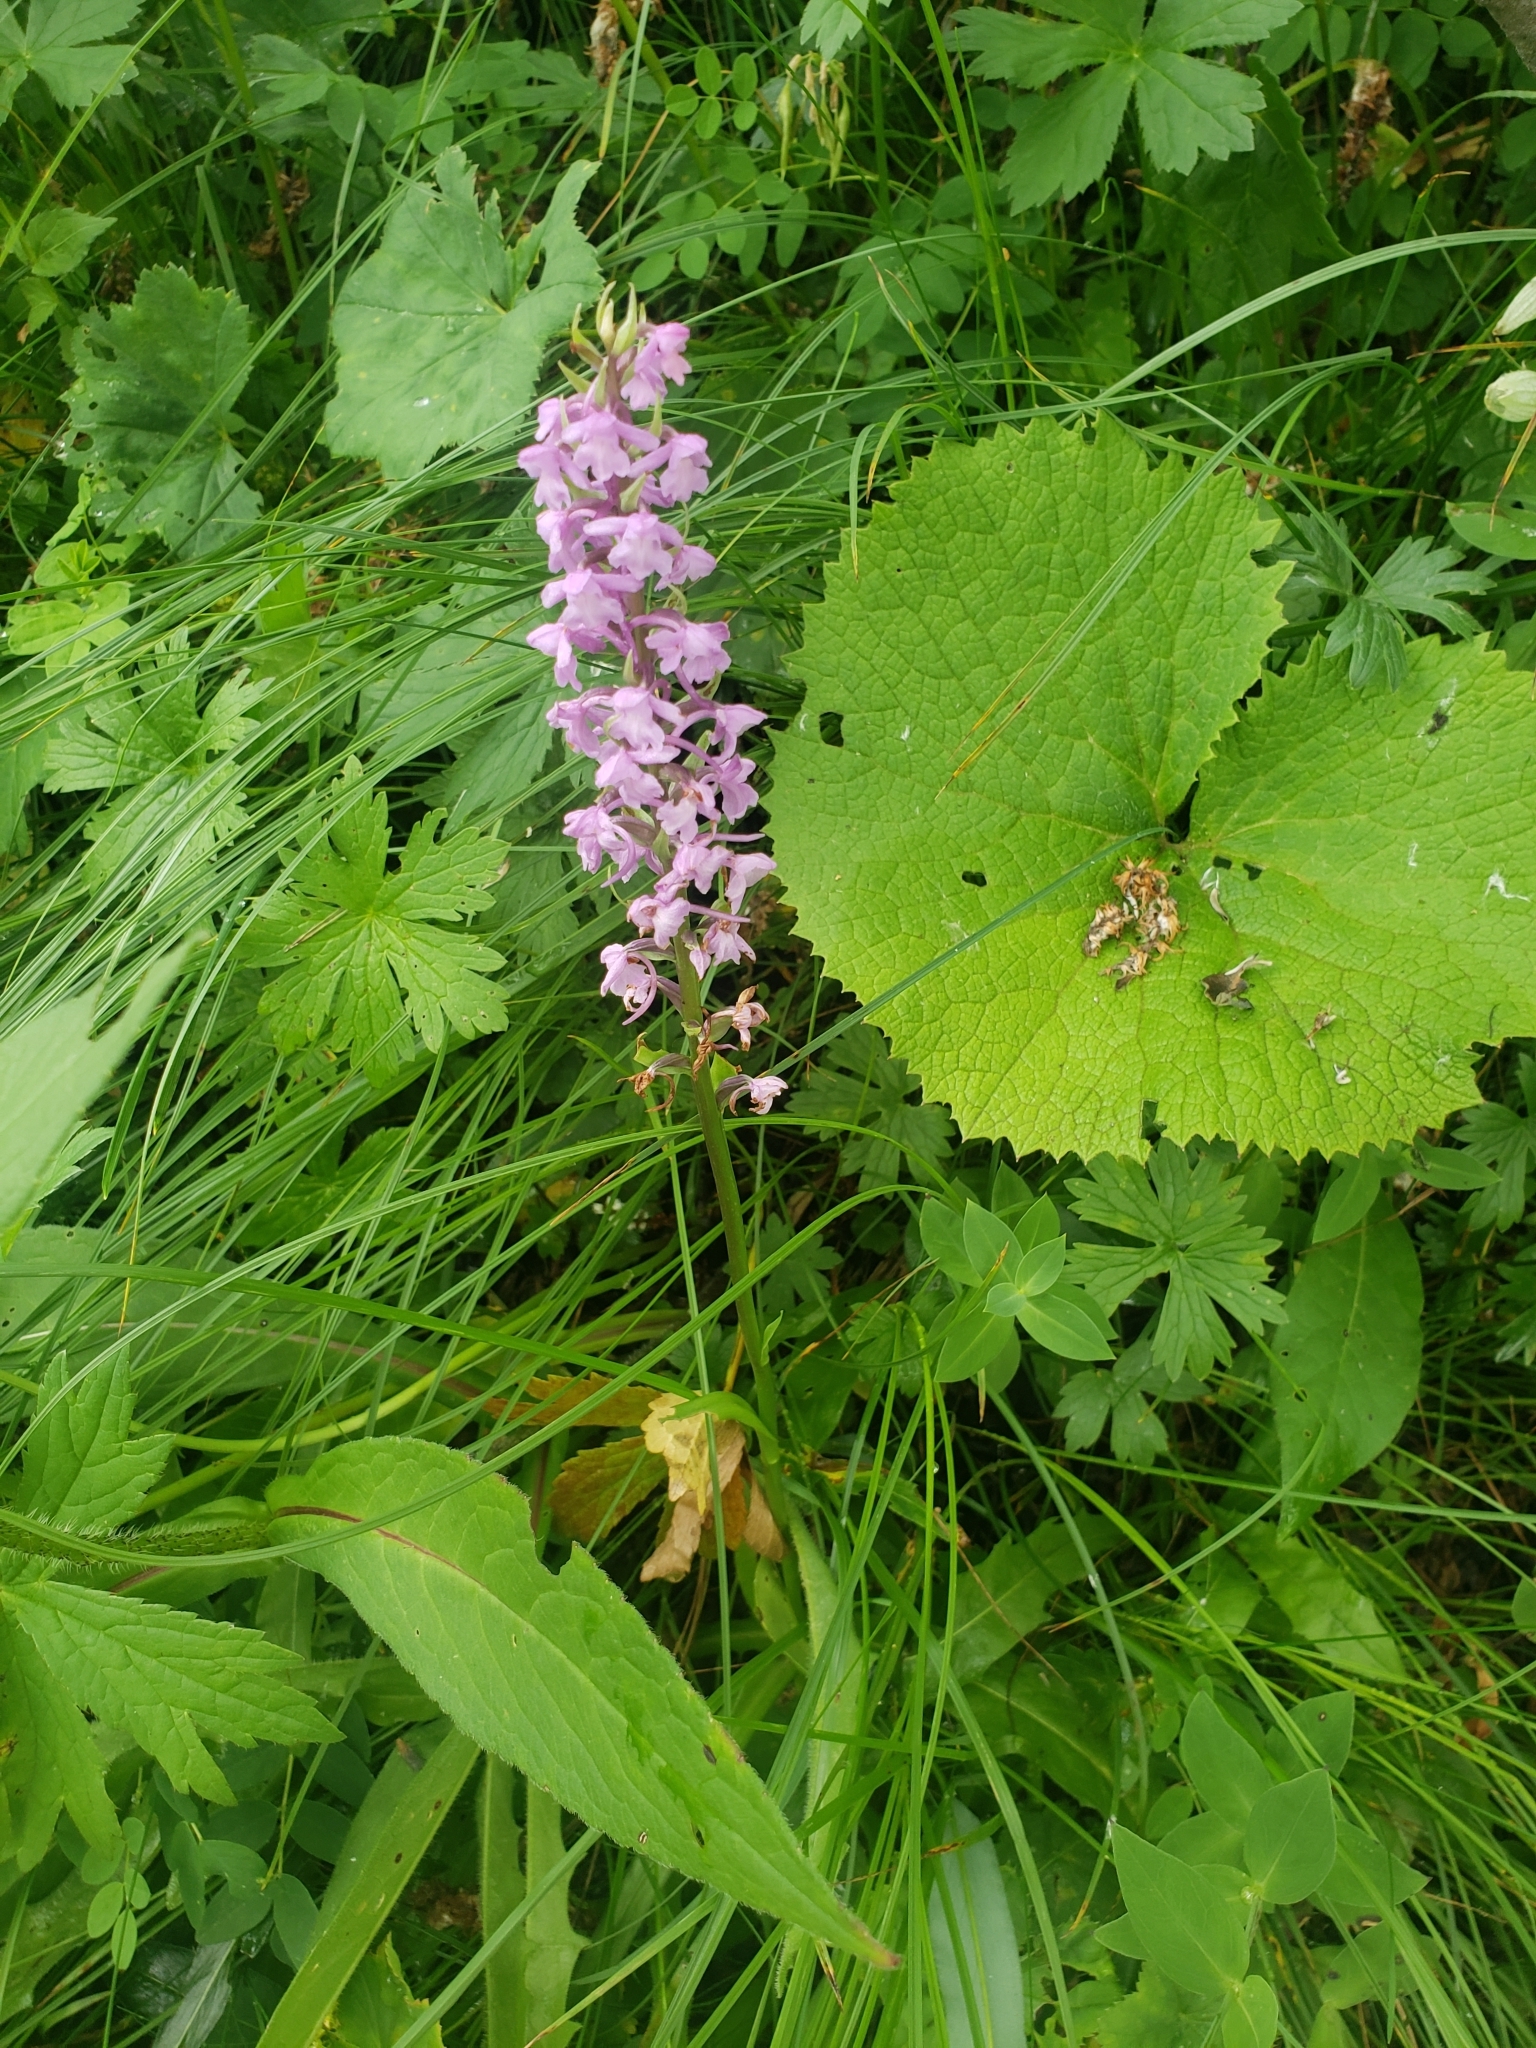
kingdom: Plantae
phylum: Tracheophyta
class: Liliopsida
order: Asparagales
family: Orchidaceae
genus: Gymnadenia
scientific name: Gymnadenia conopsea
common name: Fragrant orchid
